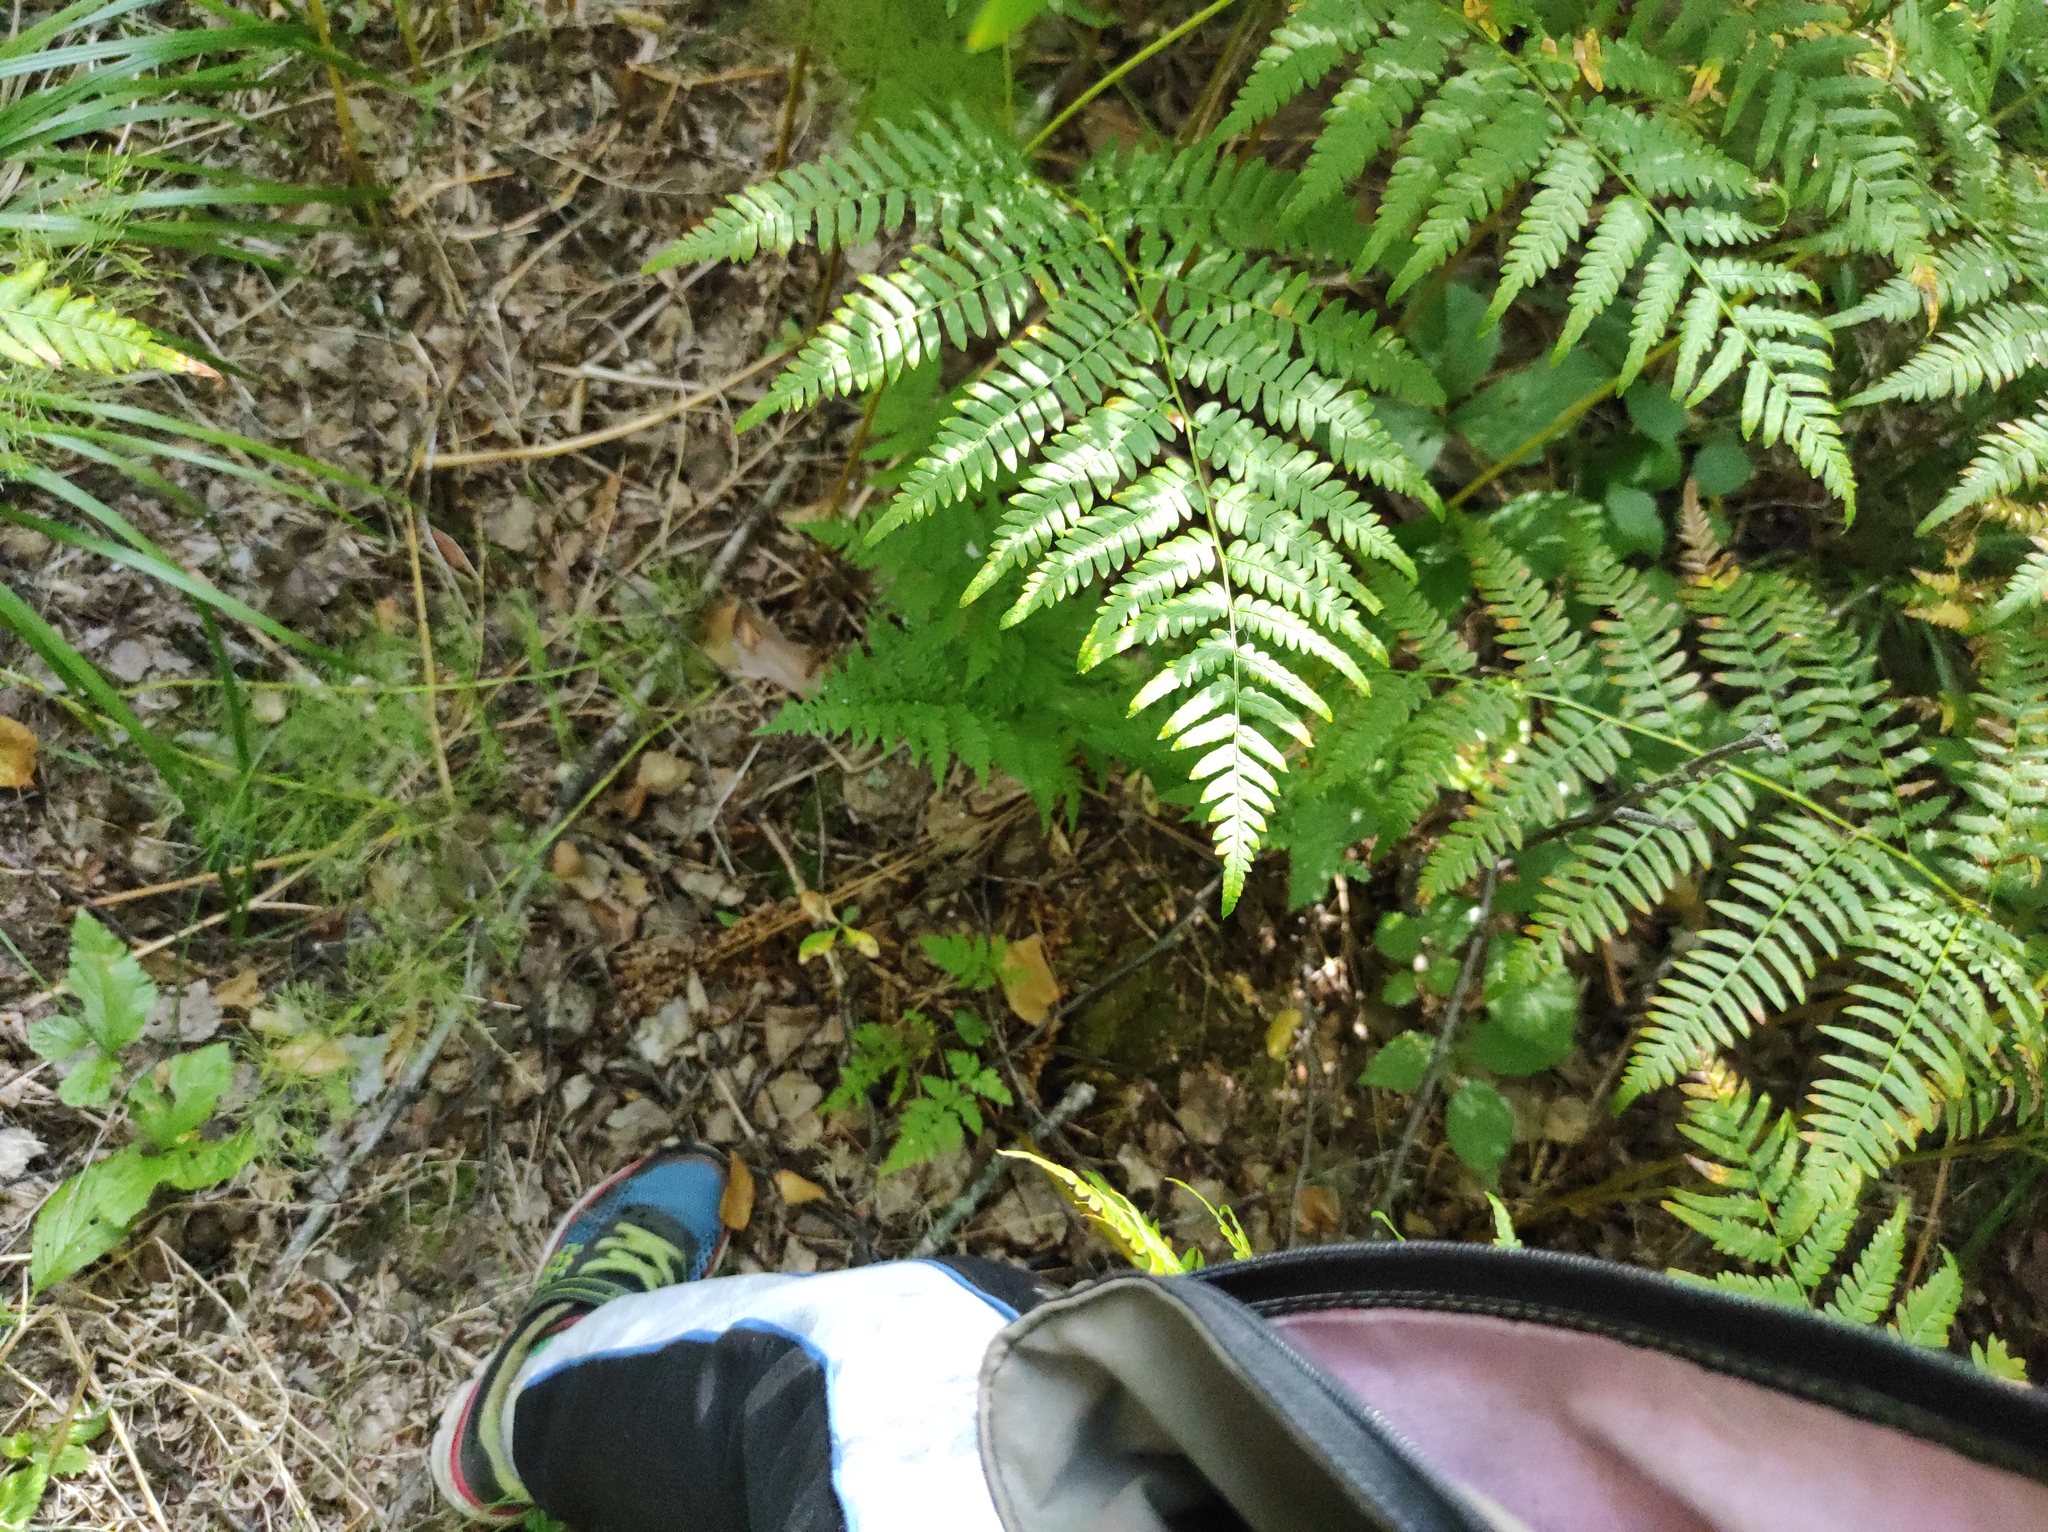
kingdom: Plantae
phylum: Tracheophyta
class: Polypodiopsida
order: Polypodiales
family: Dennstaedtiaceae
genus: Pteridium
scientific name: Pteridium aquilinum
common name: Bracken
